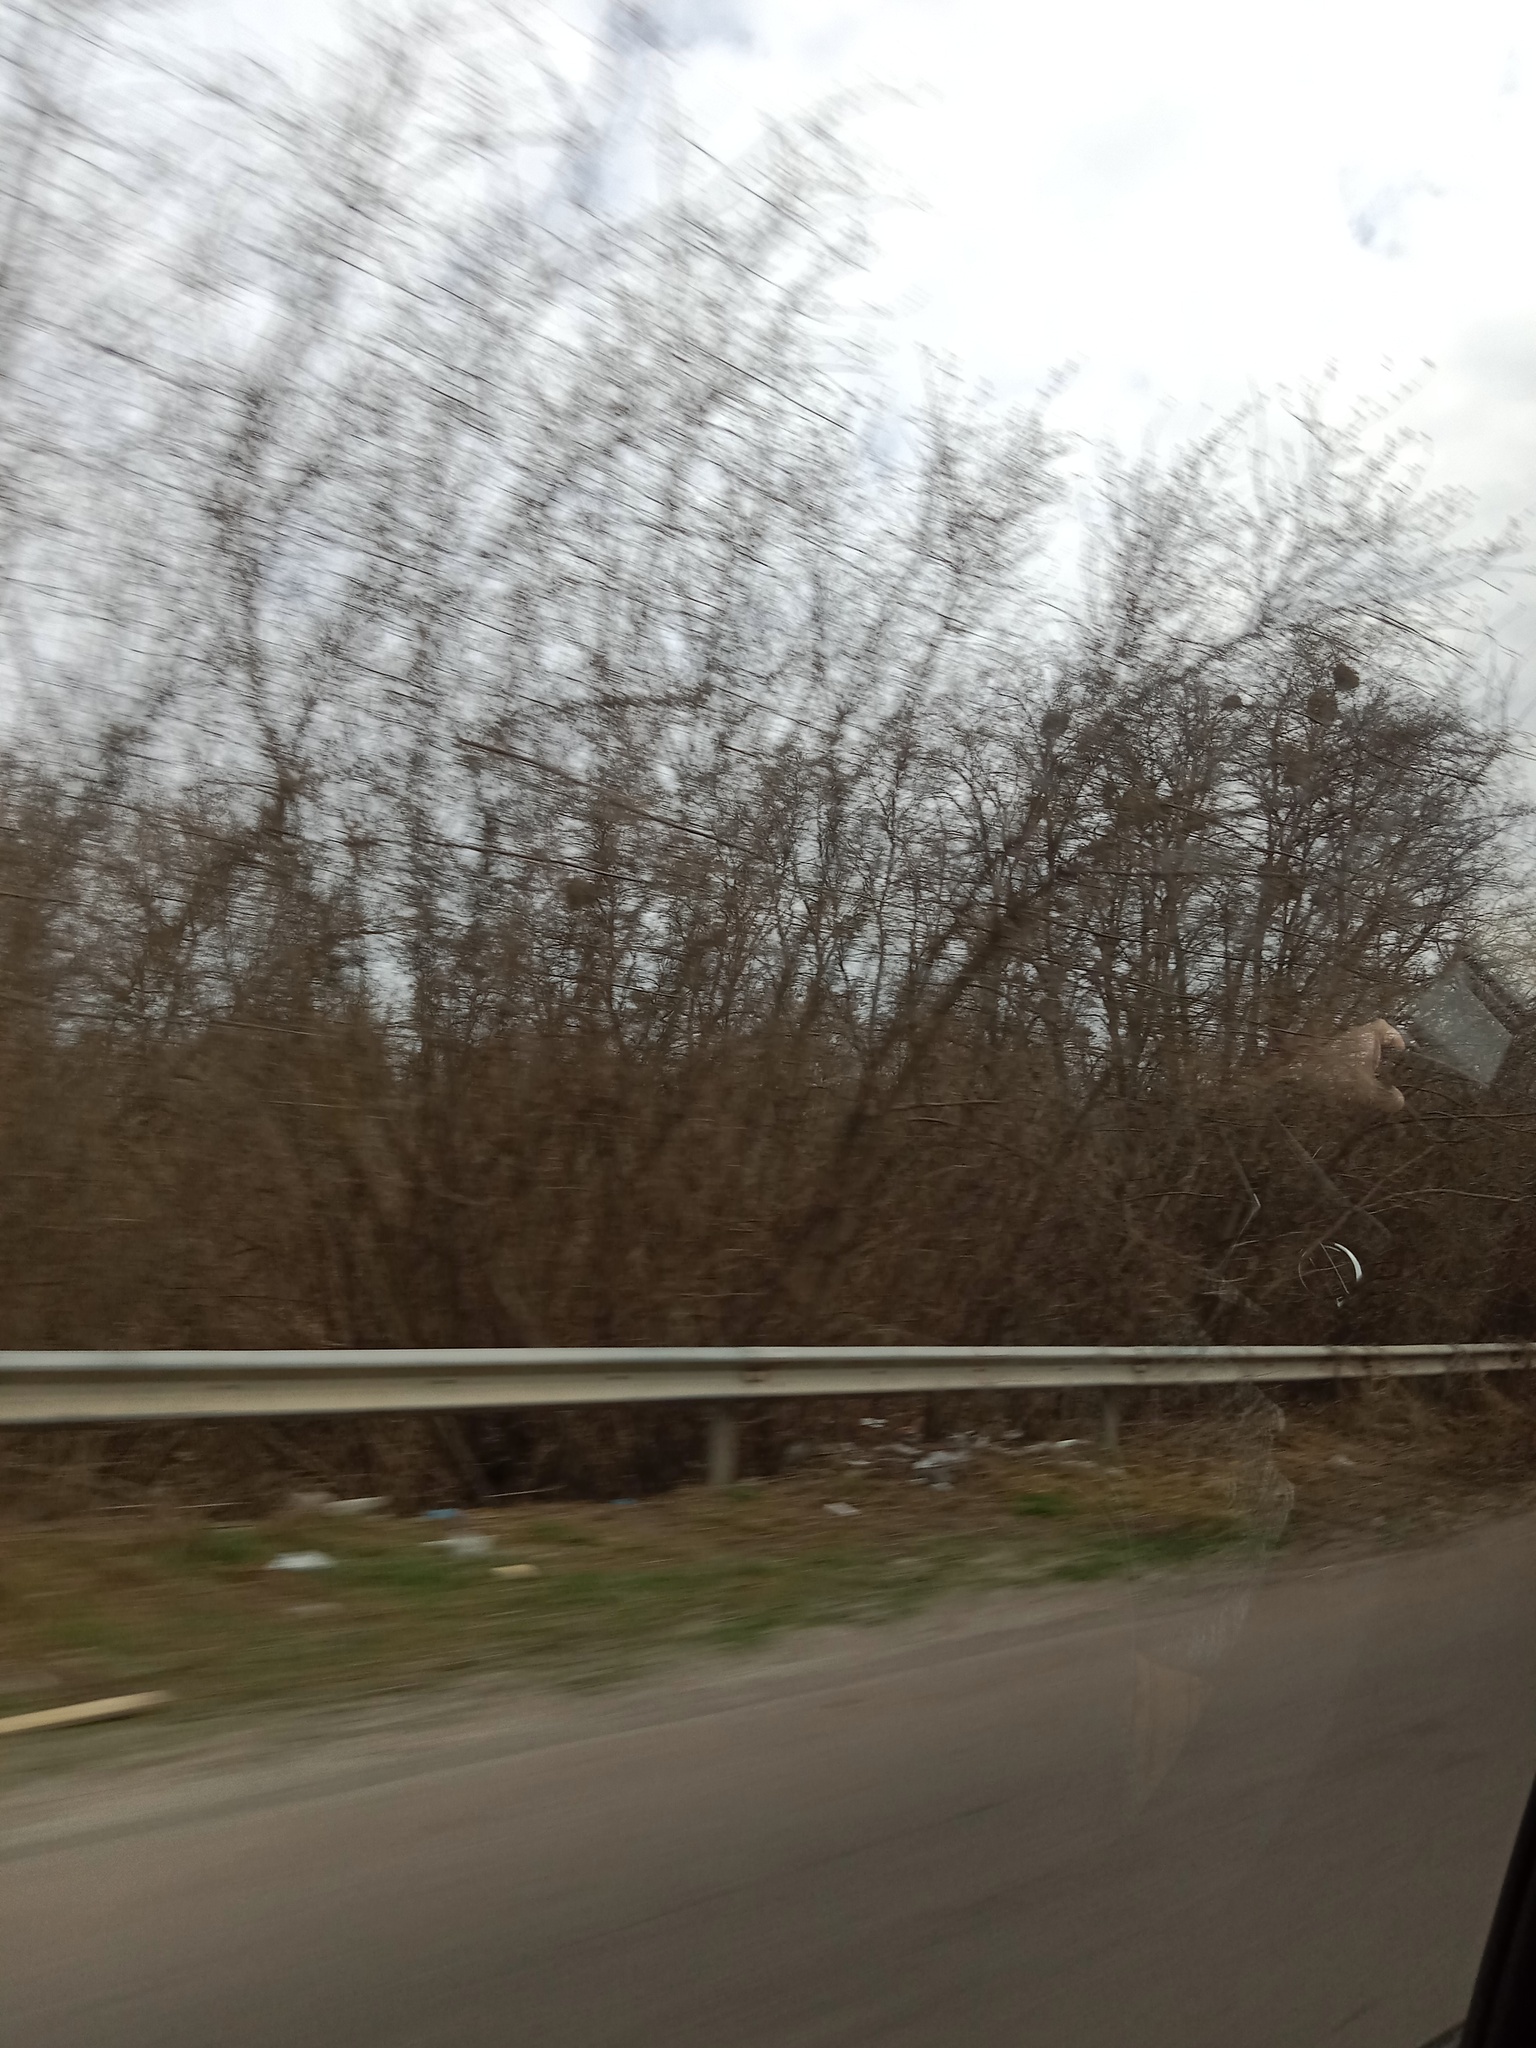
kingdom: Plantae
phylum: Tracheophyta
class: Magnoliopsida
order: Santalales
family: Viscaceae
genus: Viscum
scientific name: Viscum album
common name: Mistletoe
